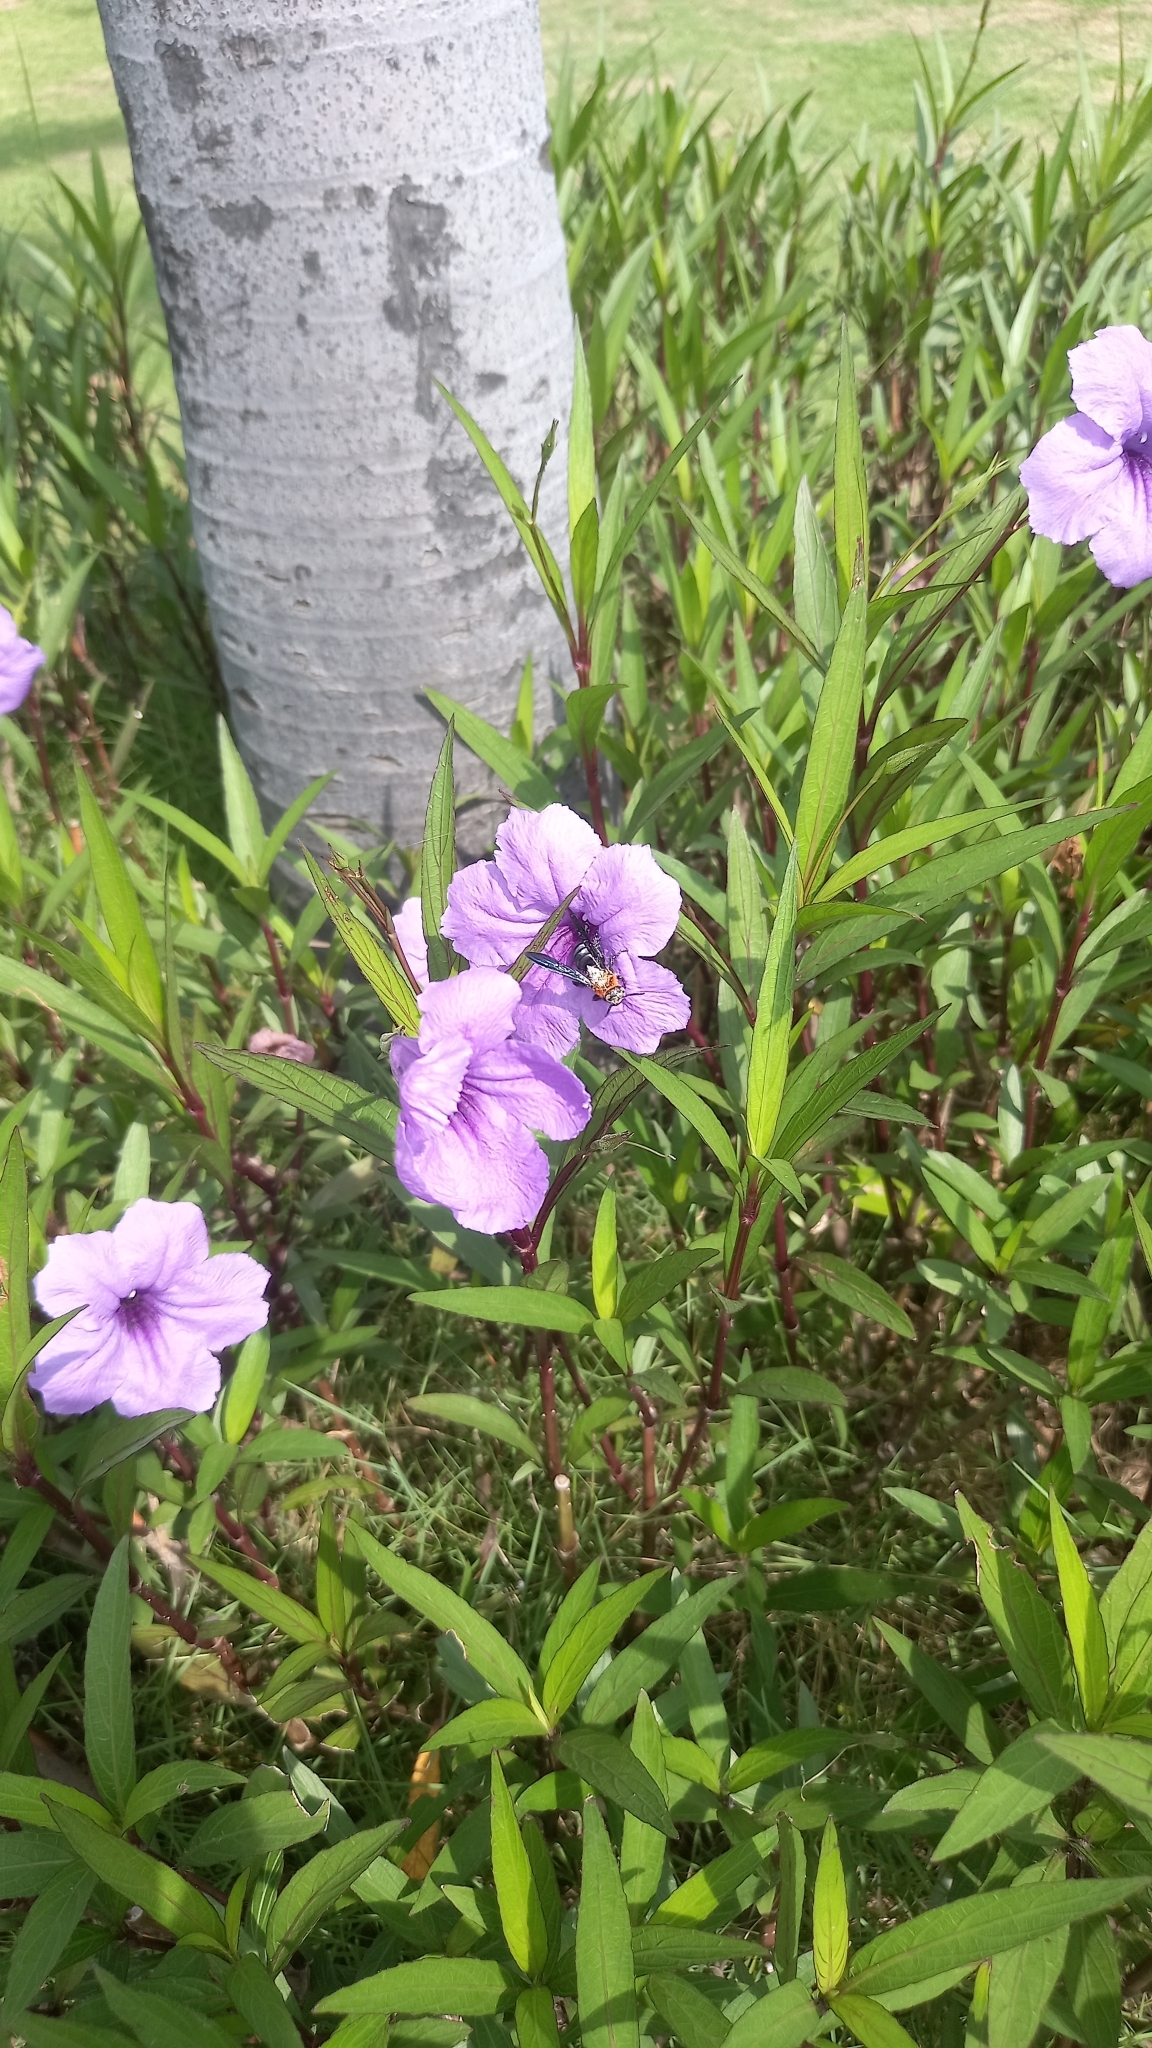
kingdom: Animalia
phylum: Arthropoda
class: Insecta
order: Hymenoptera
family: Scoliidae
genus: Campsomeriella
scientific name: Campsomeriella collaris
